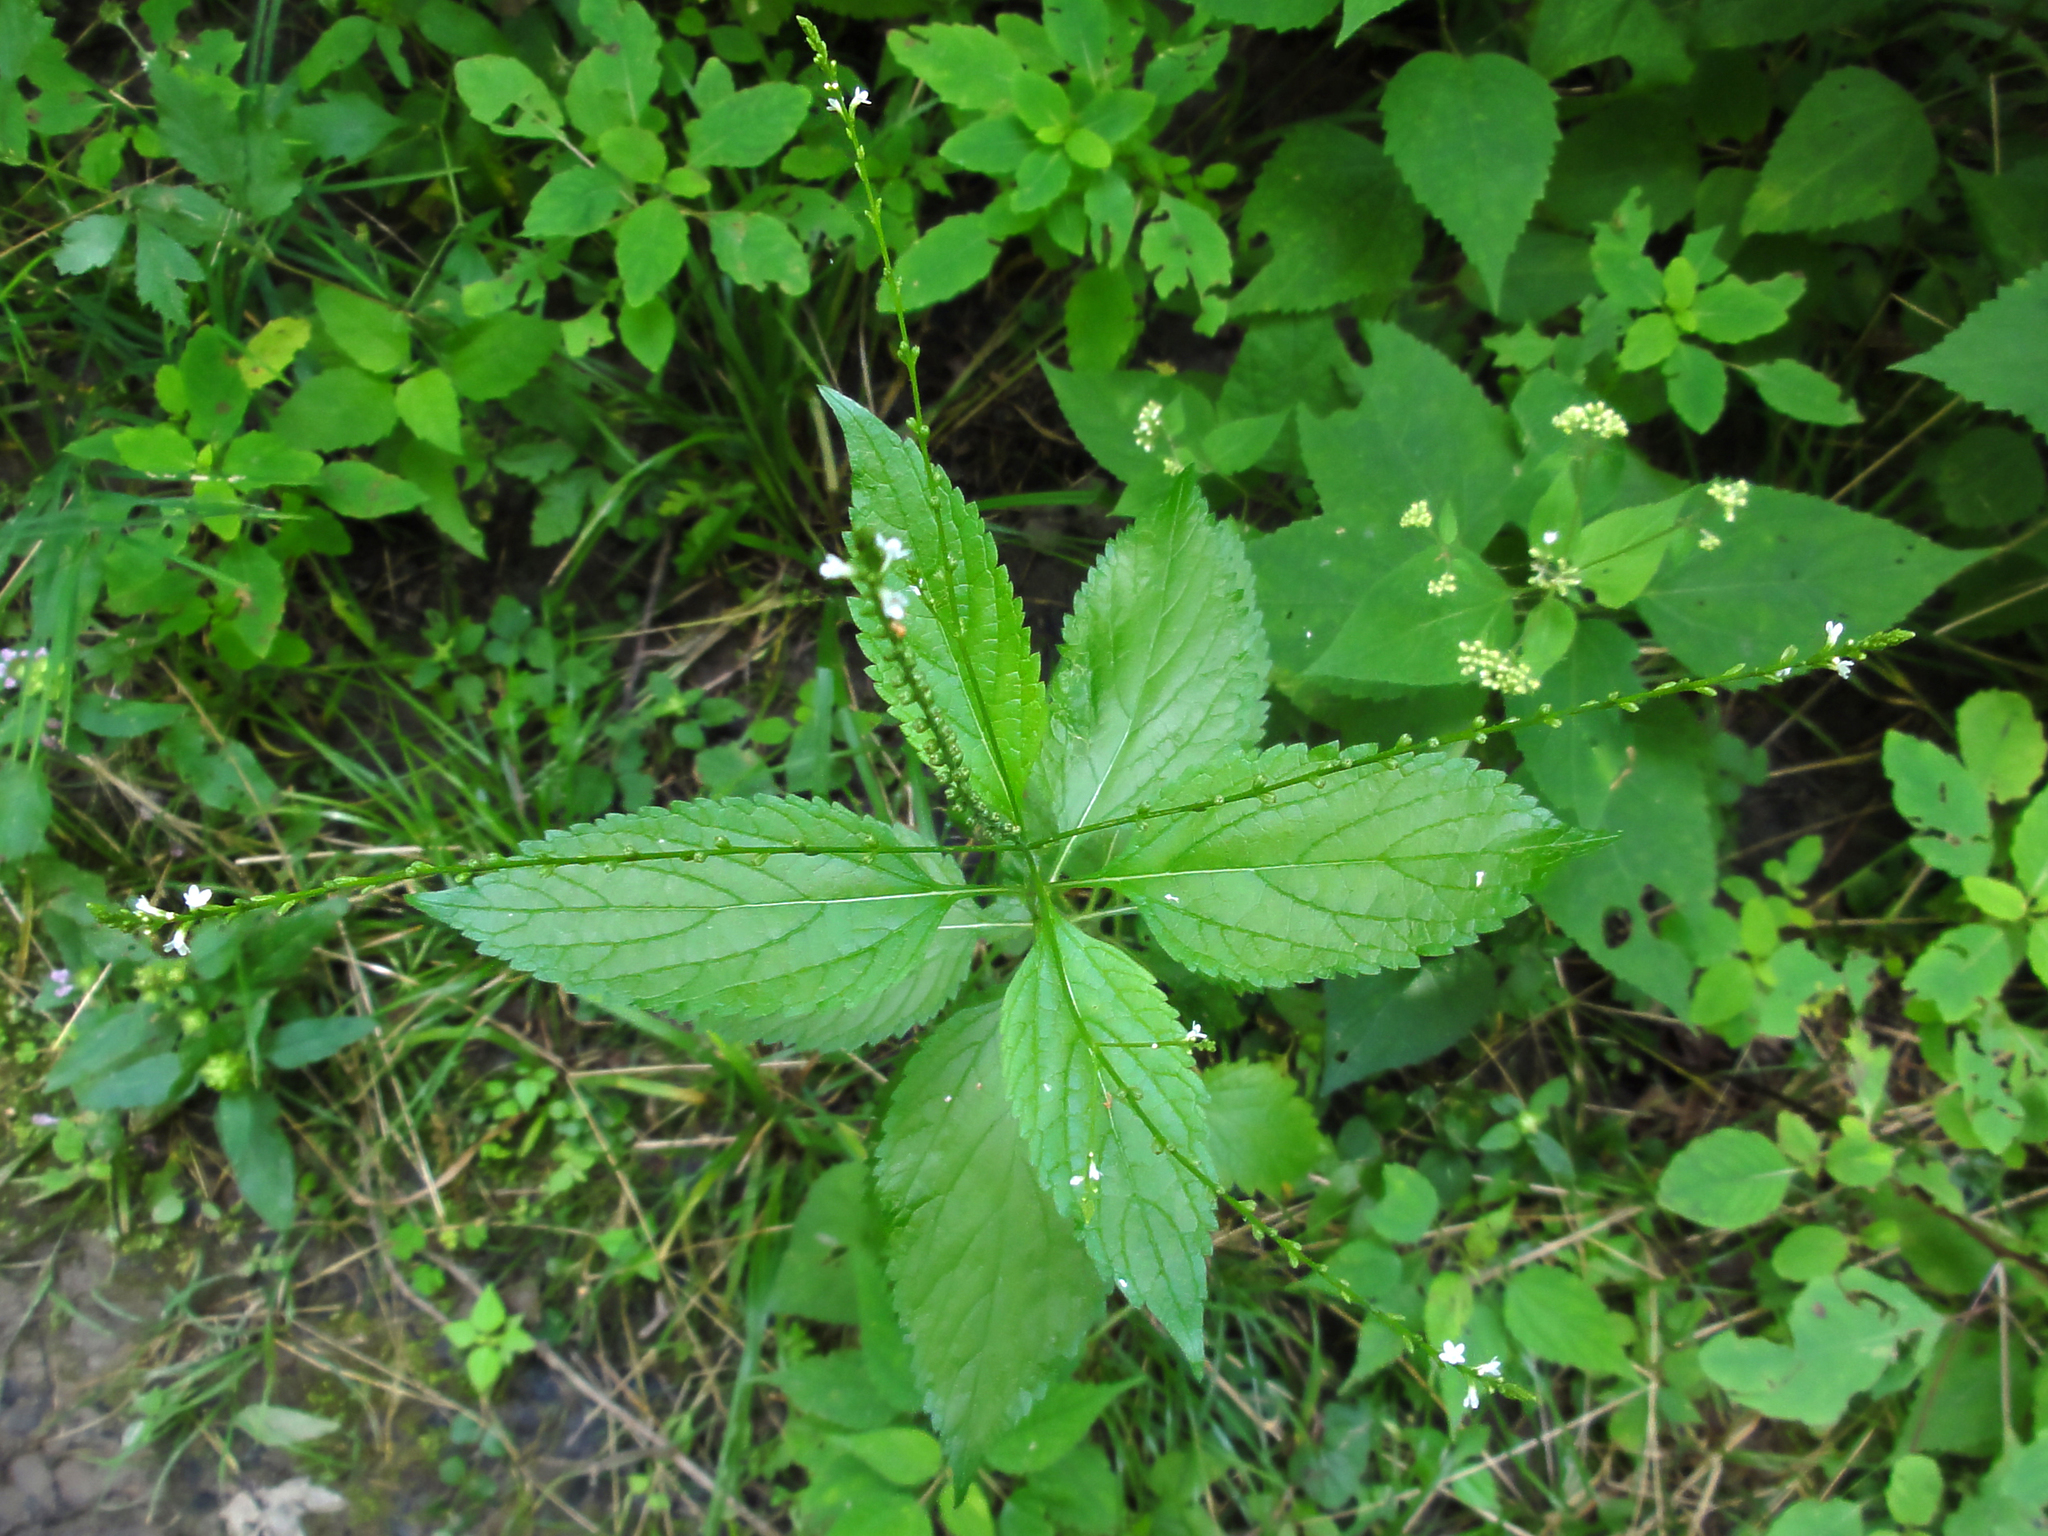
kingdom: Plantae
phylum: Tracheophyta
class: Magnoliopsida
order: Lamiales
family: Verbenaceae
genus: Verbena
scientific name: Verbena urticifolia
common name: Nettle-leaved vervain
